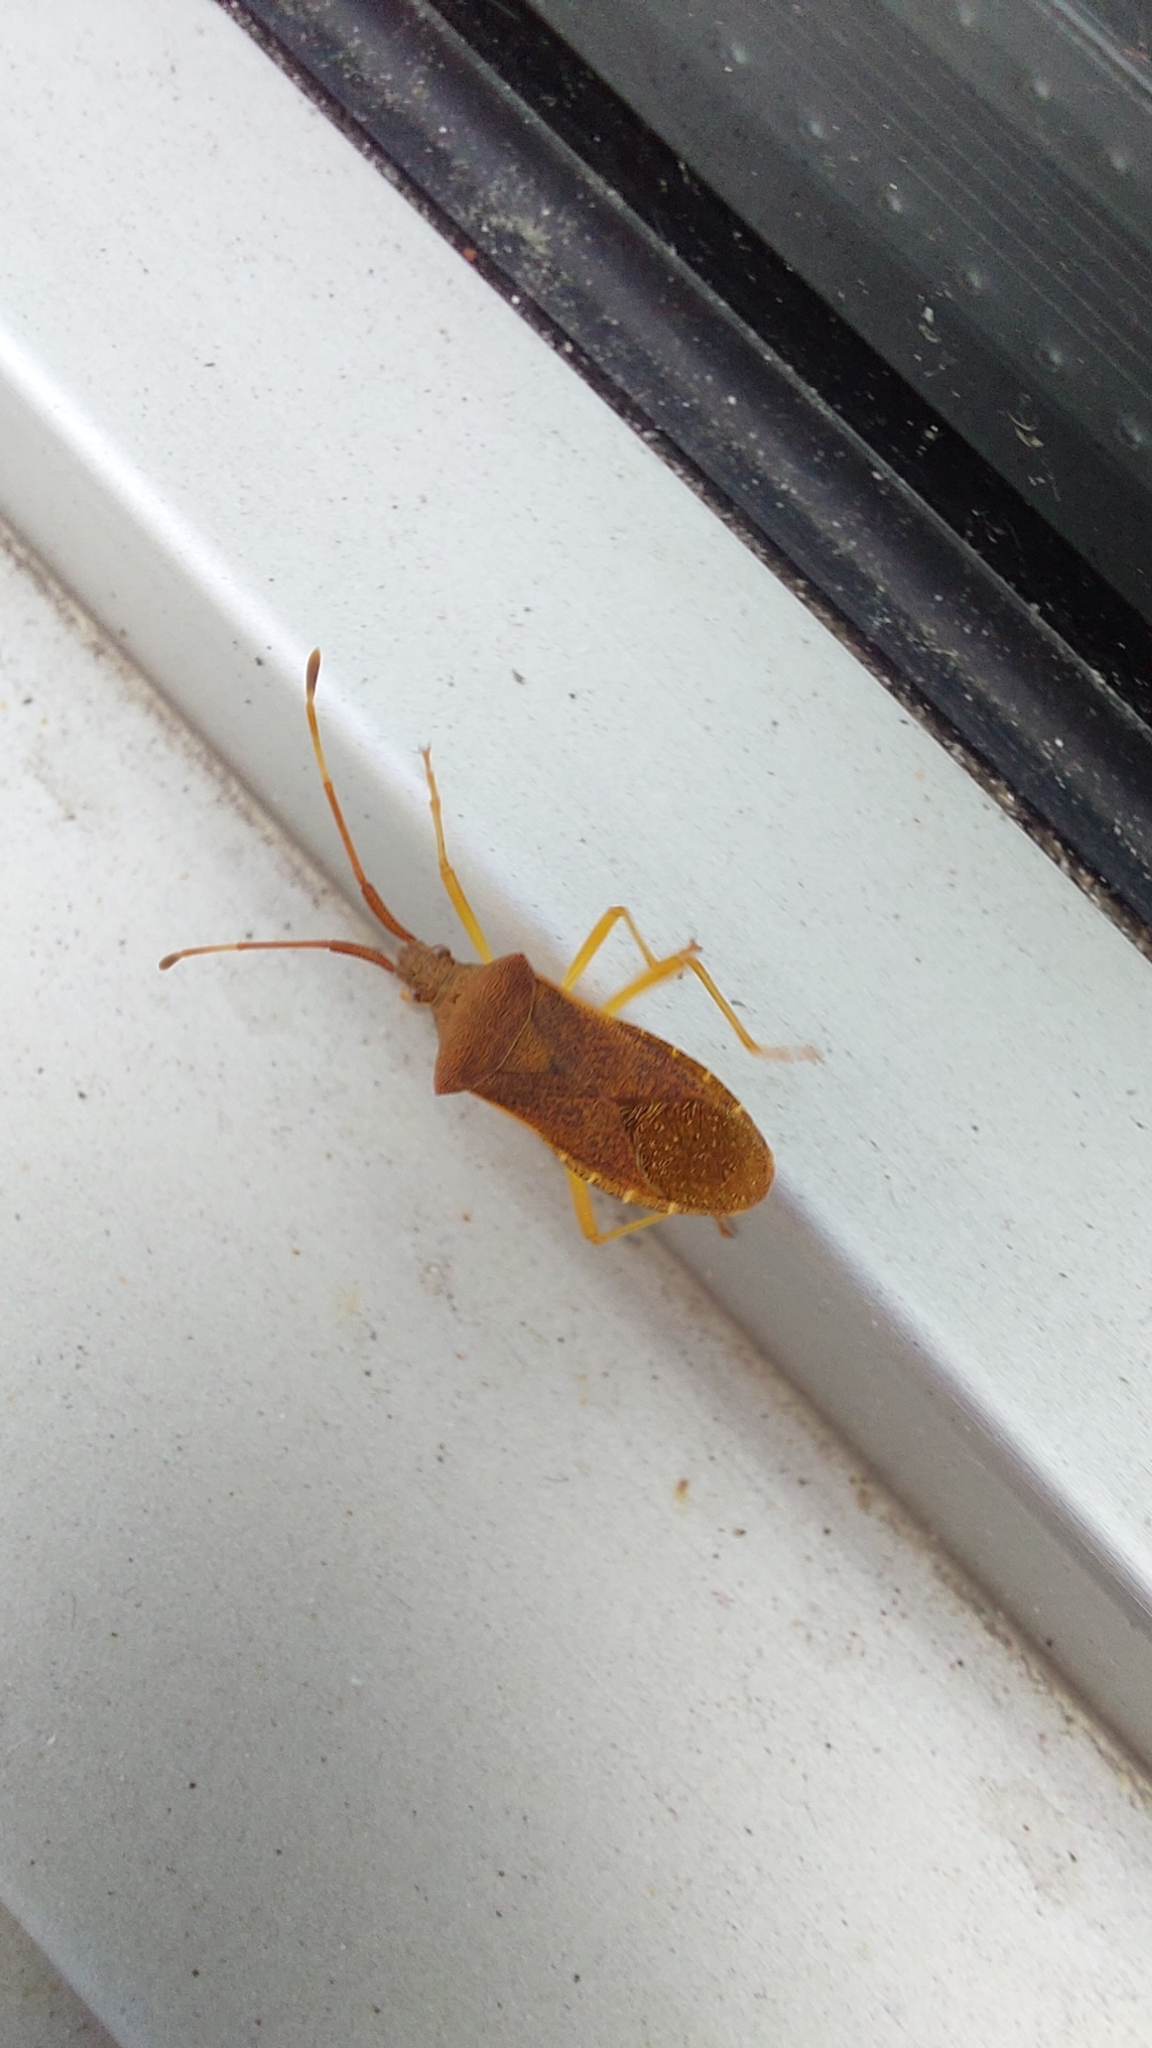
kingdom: Animalia
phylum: Arthropoda
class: Insecta
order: Hemiptera
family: Coreidae
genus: Gonocerus
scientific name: Gonocerus acuteangulatus
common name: Box bug
